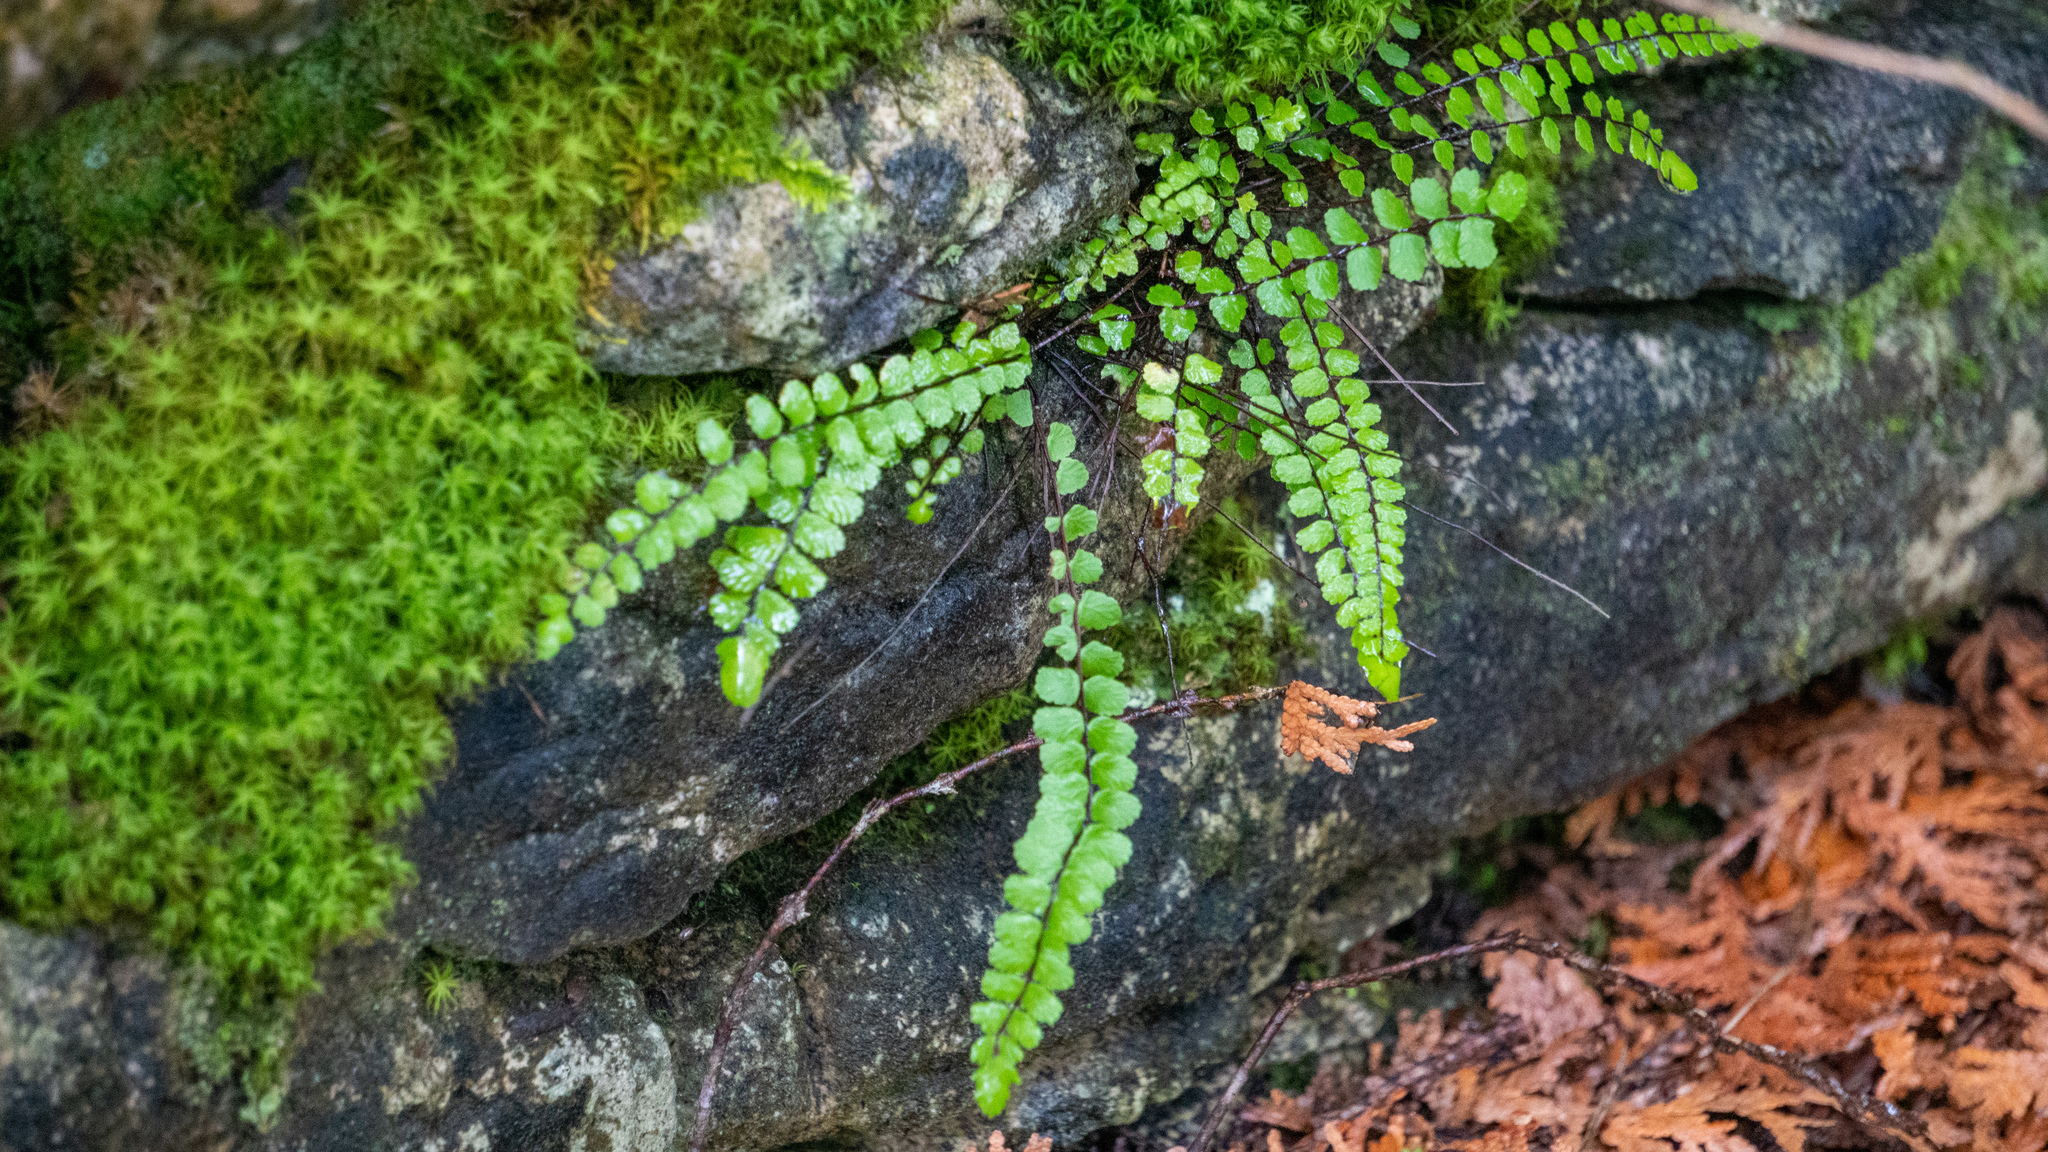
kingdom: Plantae
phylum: Tracheophyta
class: Polypodiopsida
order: Polypodiales
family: Aspleniaceae
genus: Asplenium
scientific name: Asplenium trichomanes
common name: Maidenhair spleenwort
